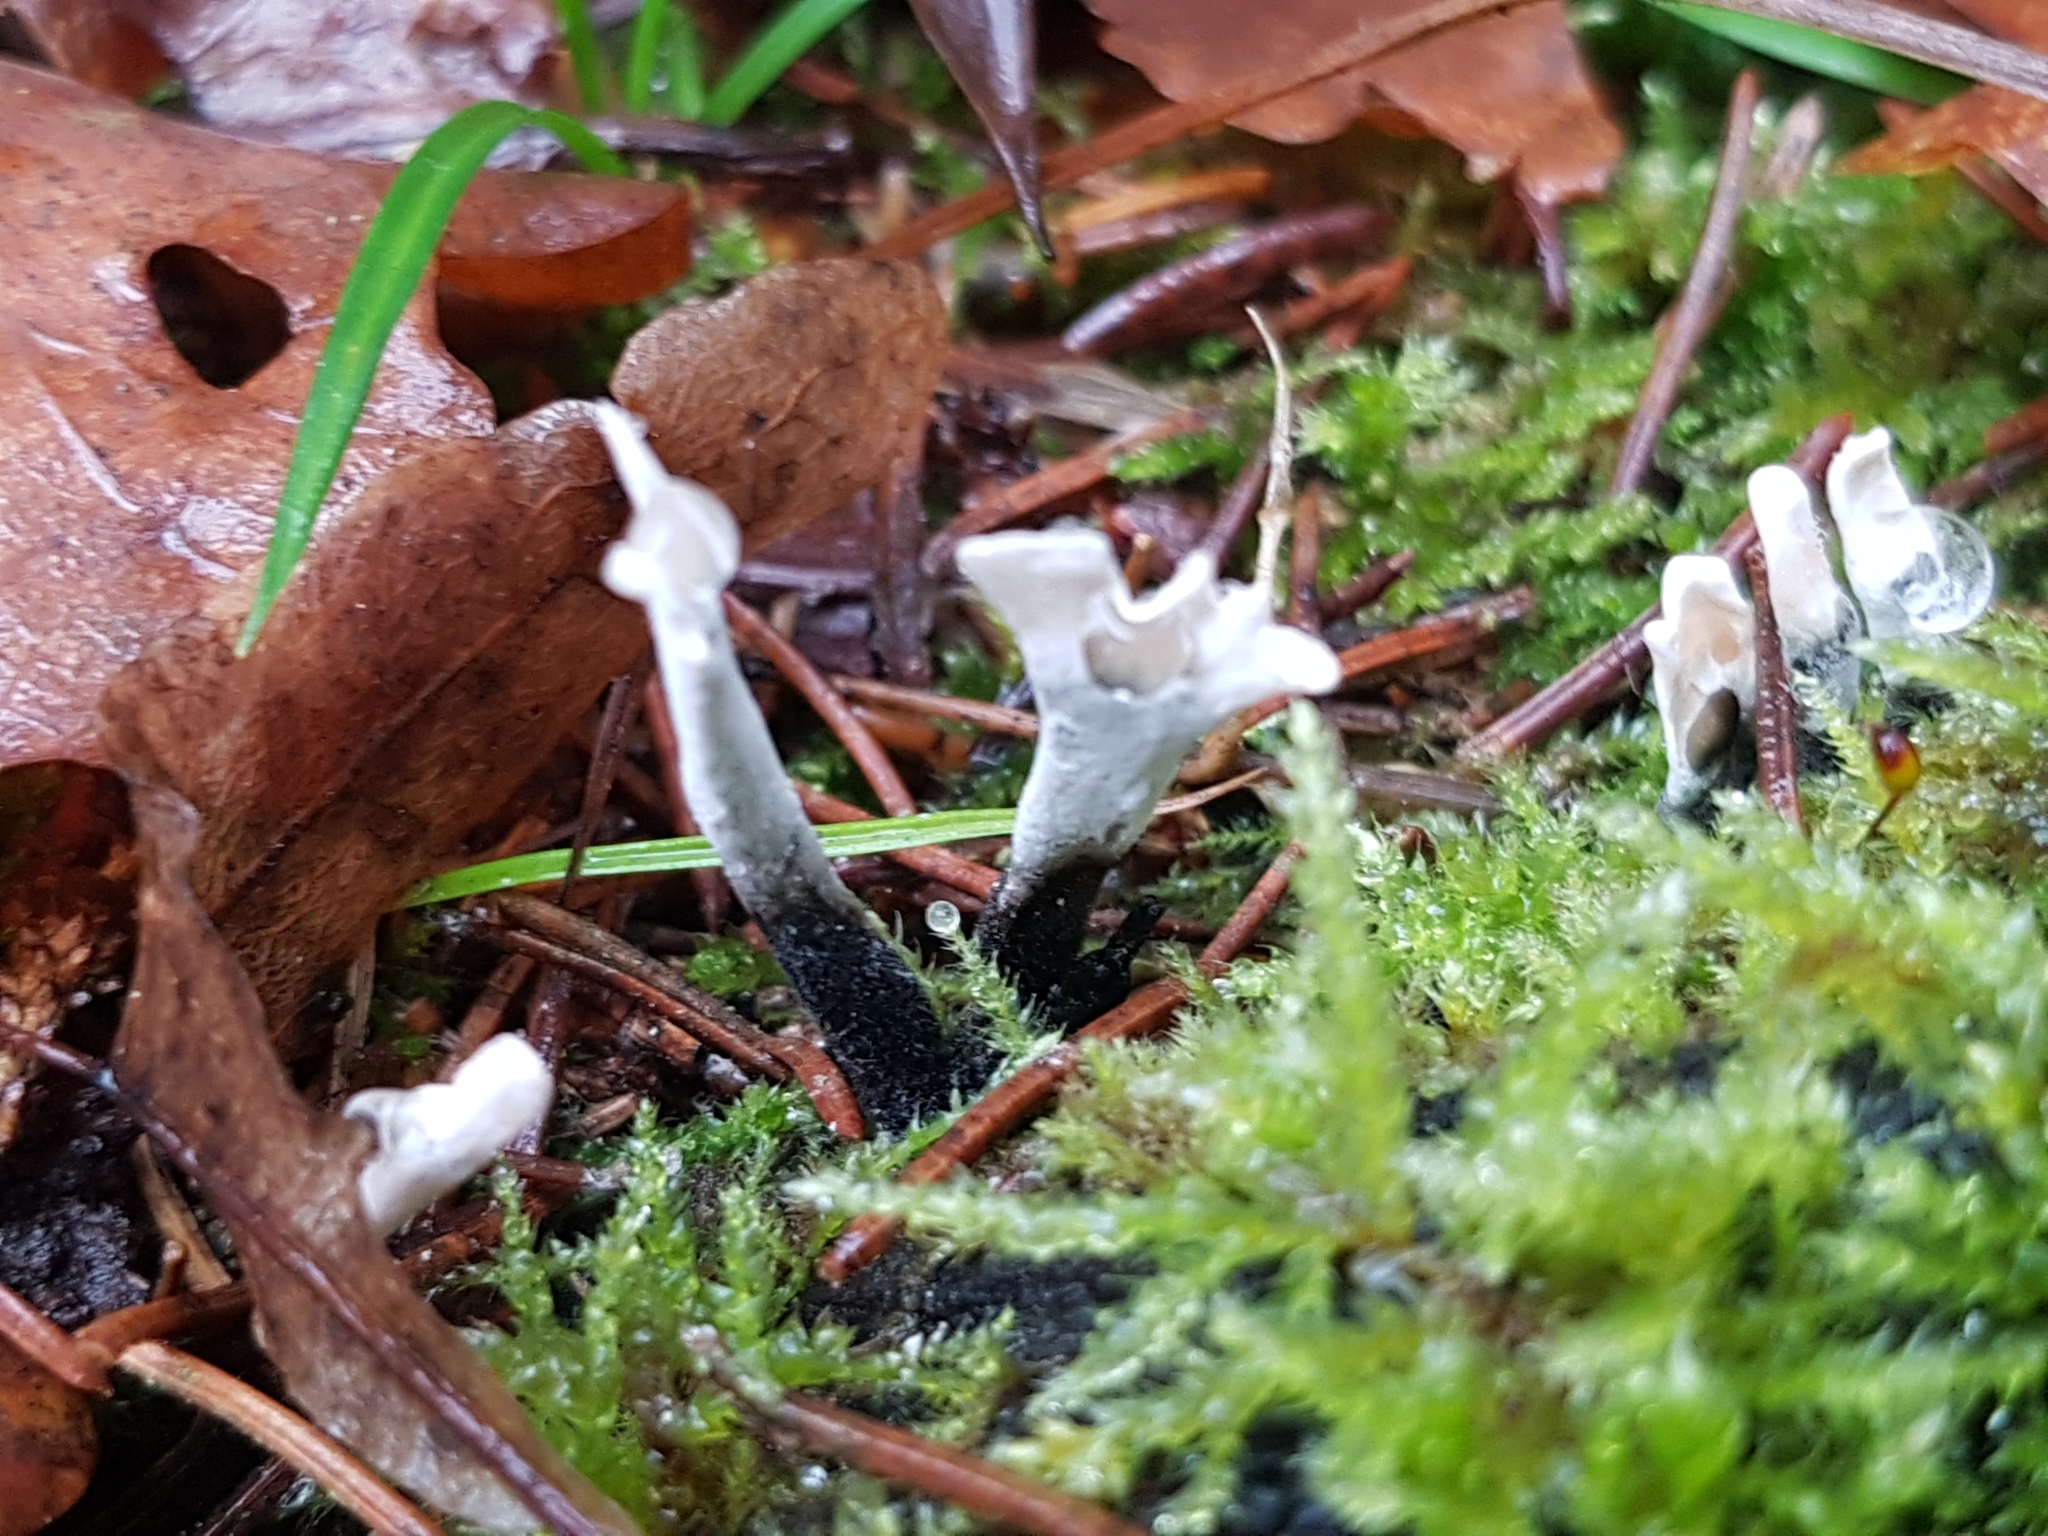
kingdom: Fungi
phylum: Ascomycota
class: Sordariomycetes
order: Xylariales
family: Xylariaceae
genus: Xylaria
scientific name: Xylaria hypoxylon
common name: Candle-snuff fungus
